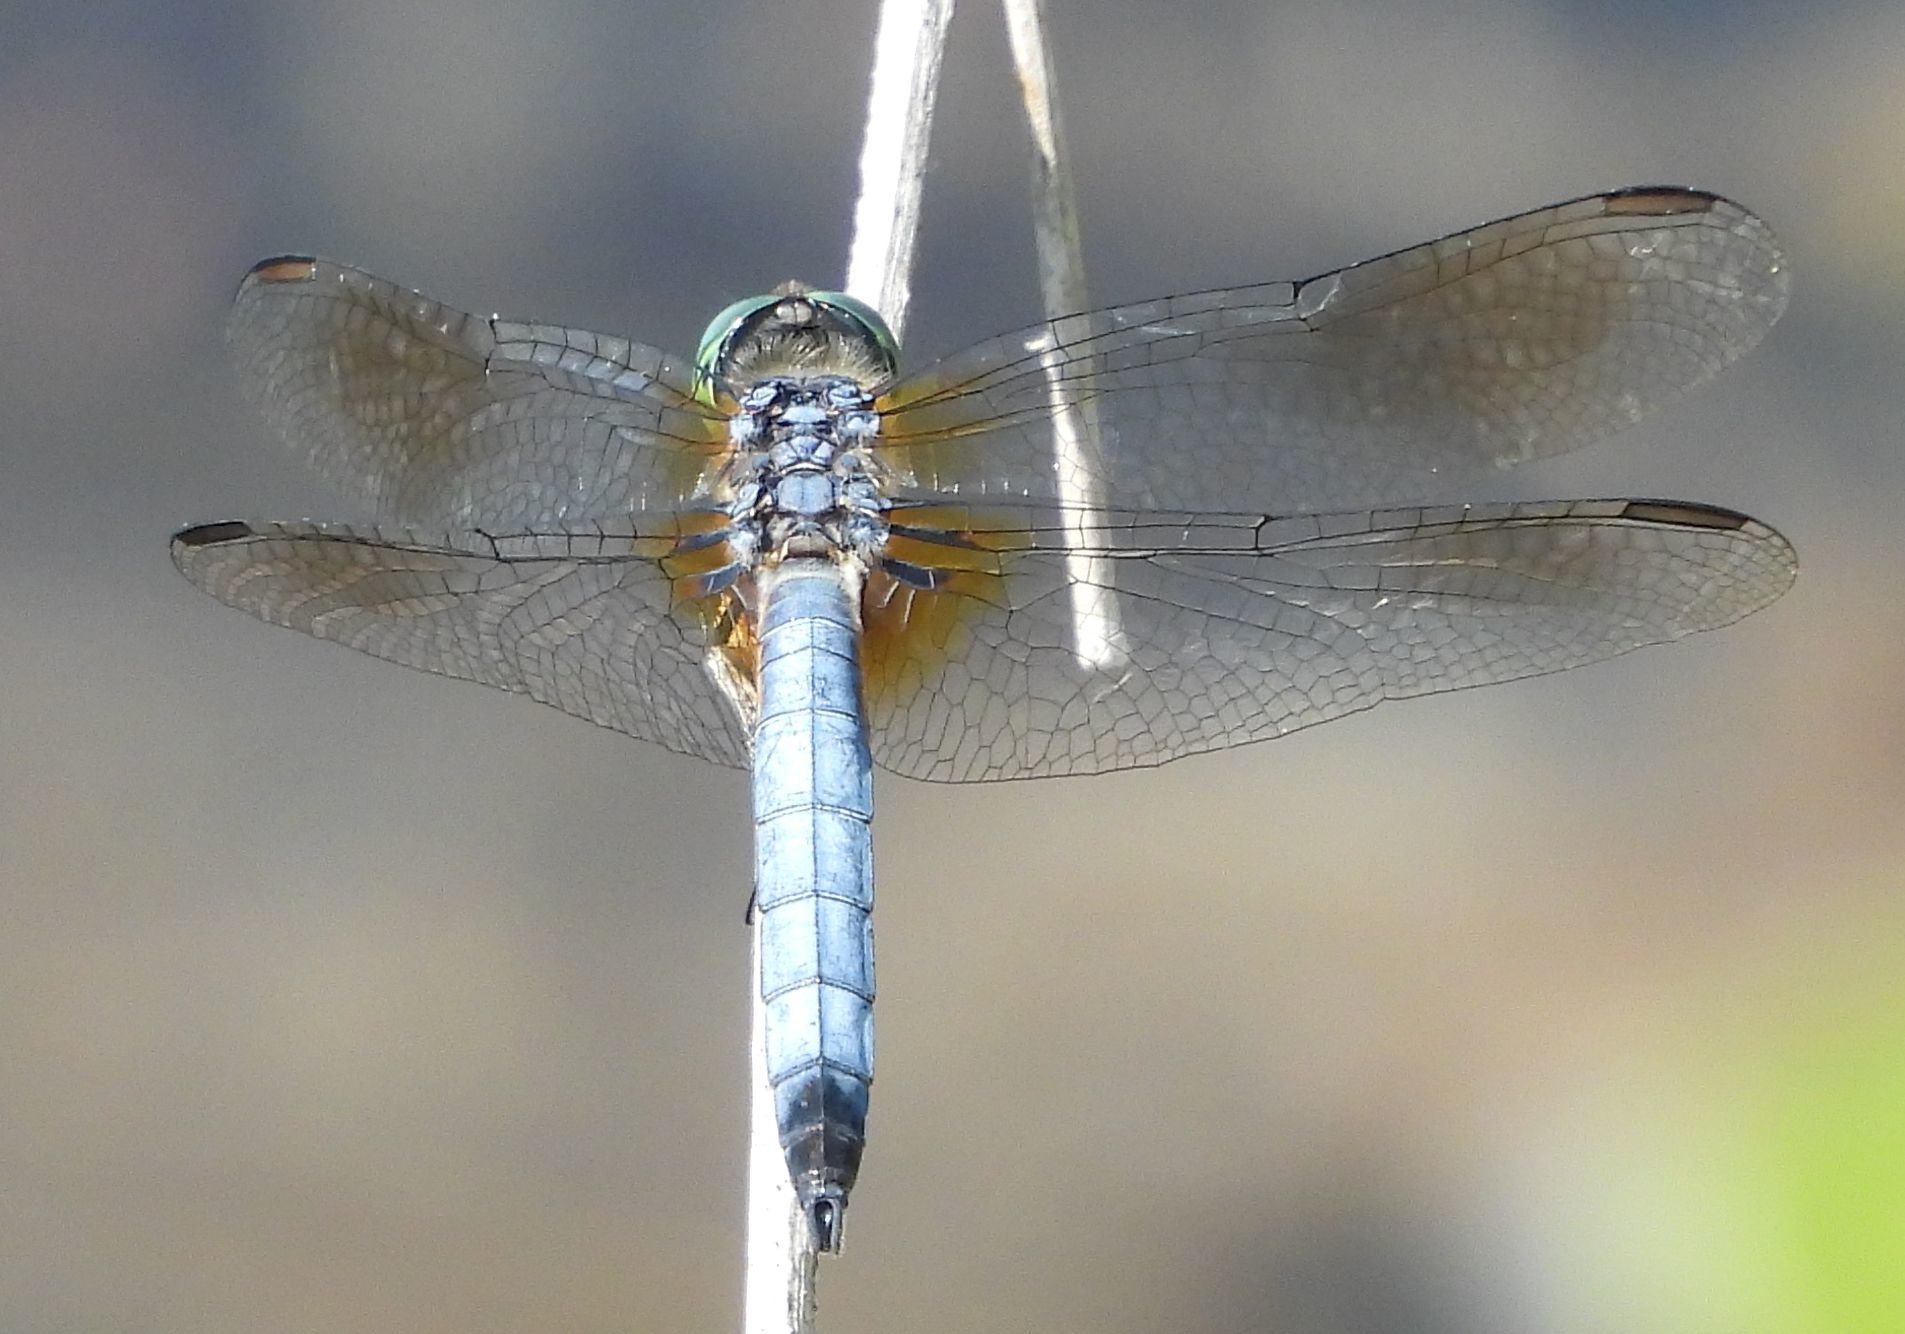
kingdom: Animalia
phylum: Arthropoda
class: Insecta
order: Odonata
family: Libellulidae
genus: Pachydiplax
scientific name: Pachydiplax longipennis
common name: Blue dasher
